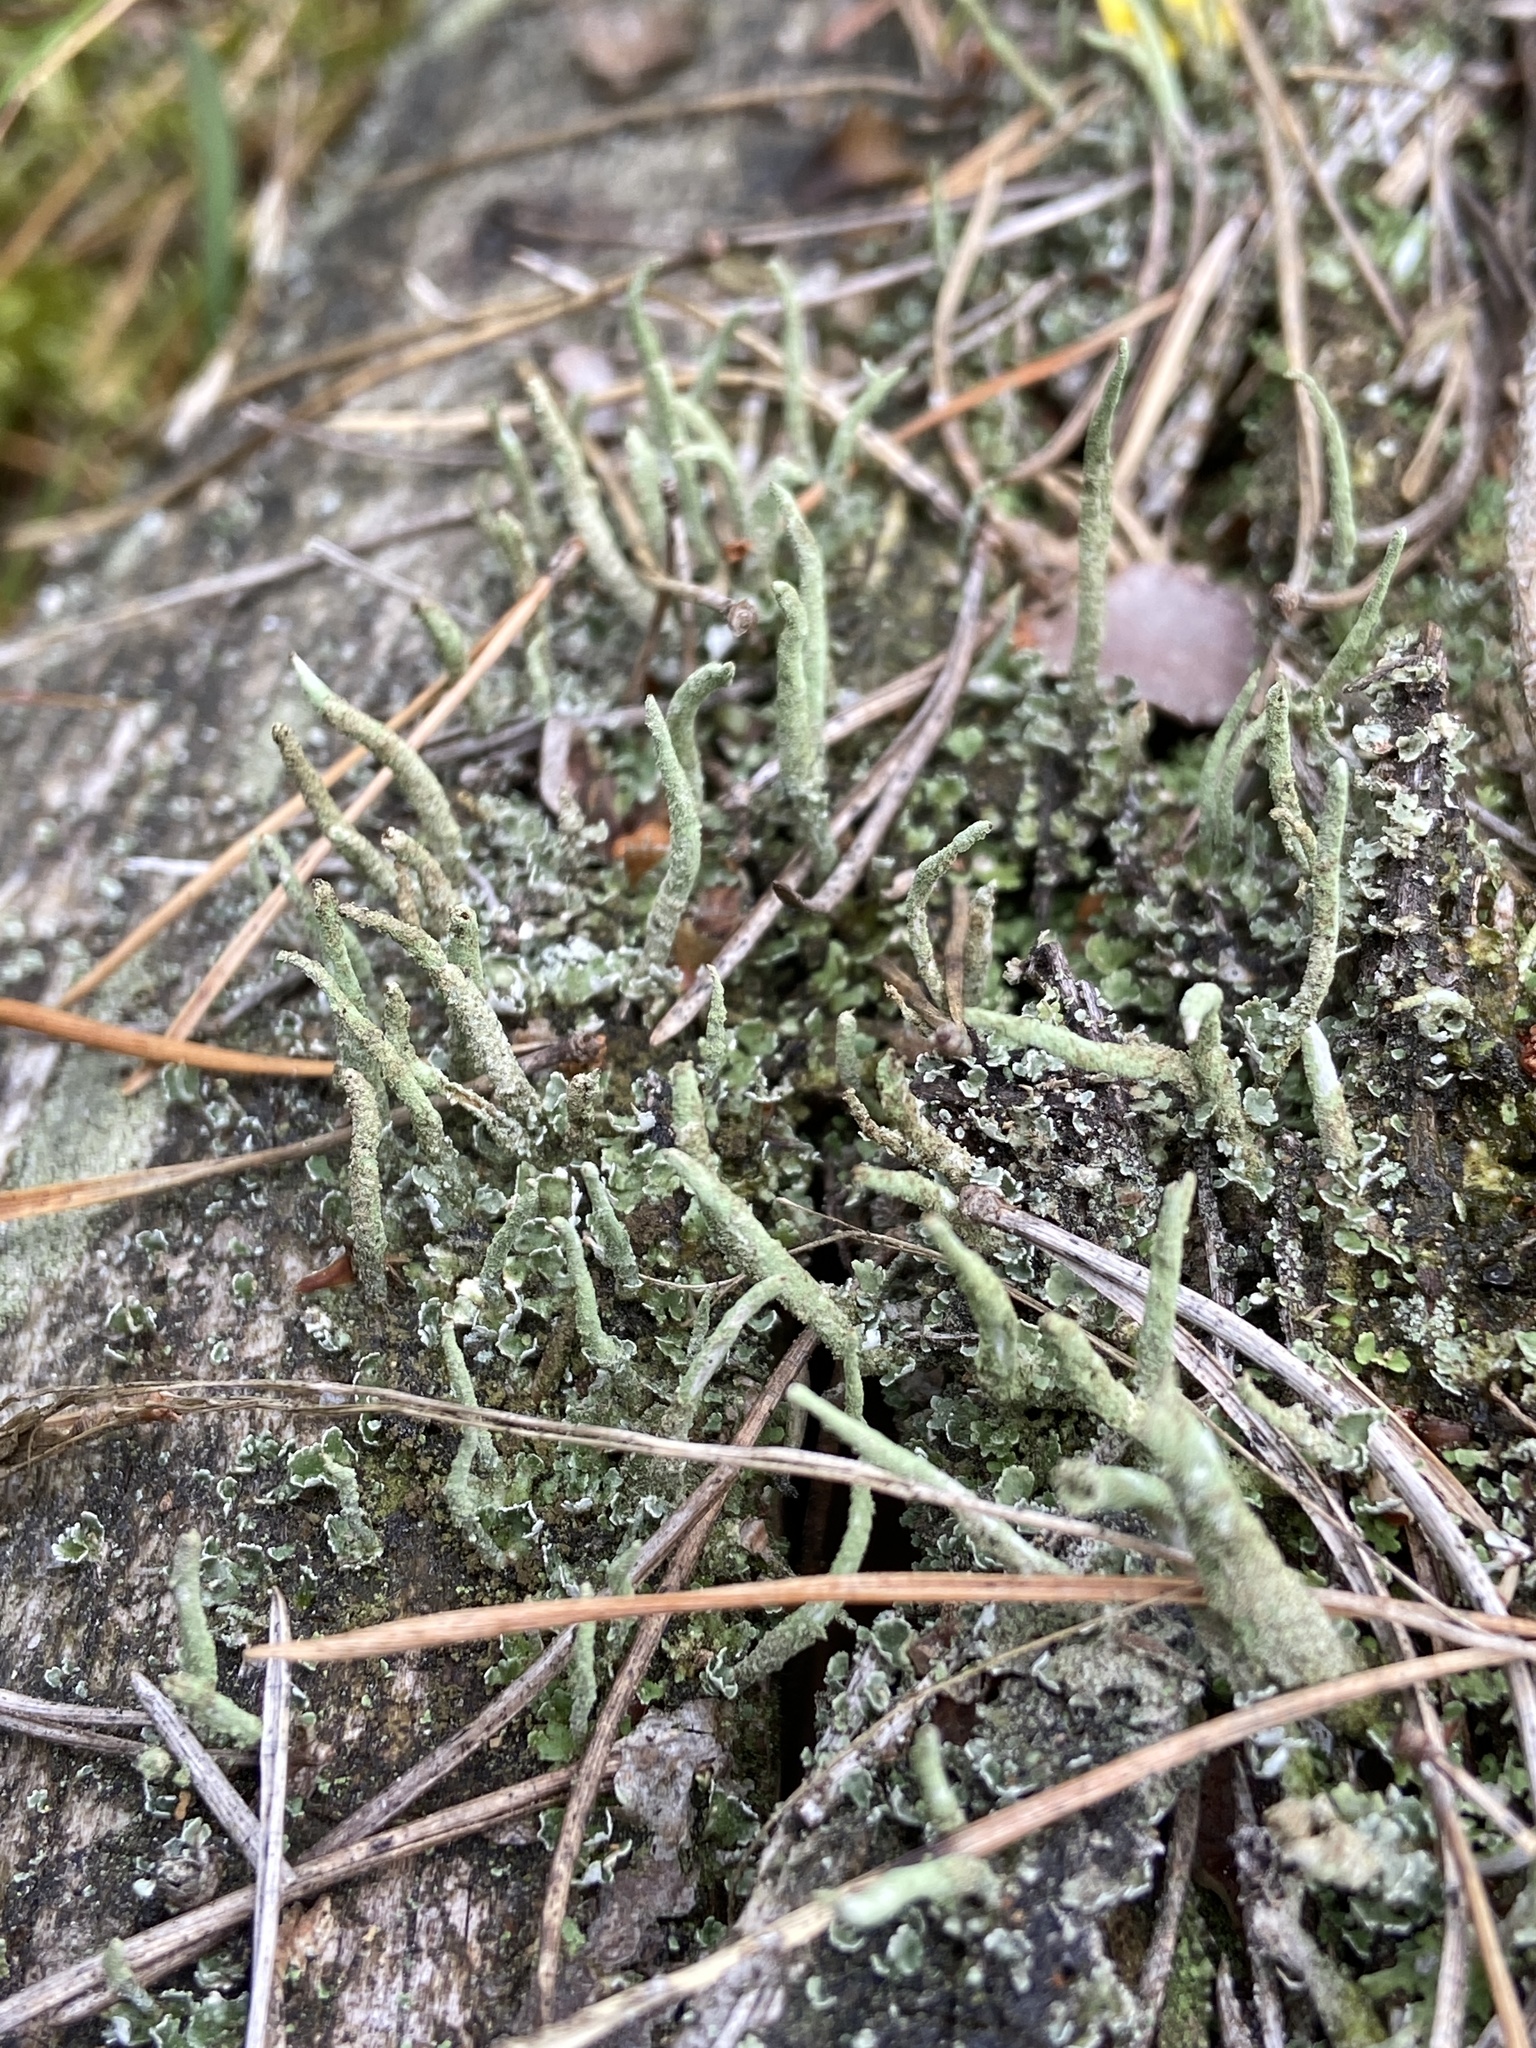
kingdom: Fungi
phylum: Ascomycota
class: Lecanoromycetes
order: Lecanorales
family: Cladoniaceae
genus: Cladonia
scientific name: Cladonia coniocraea
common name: Common powderhorn
